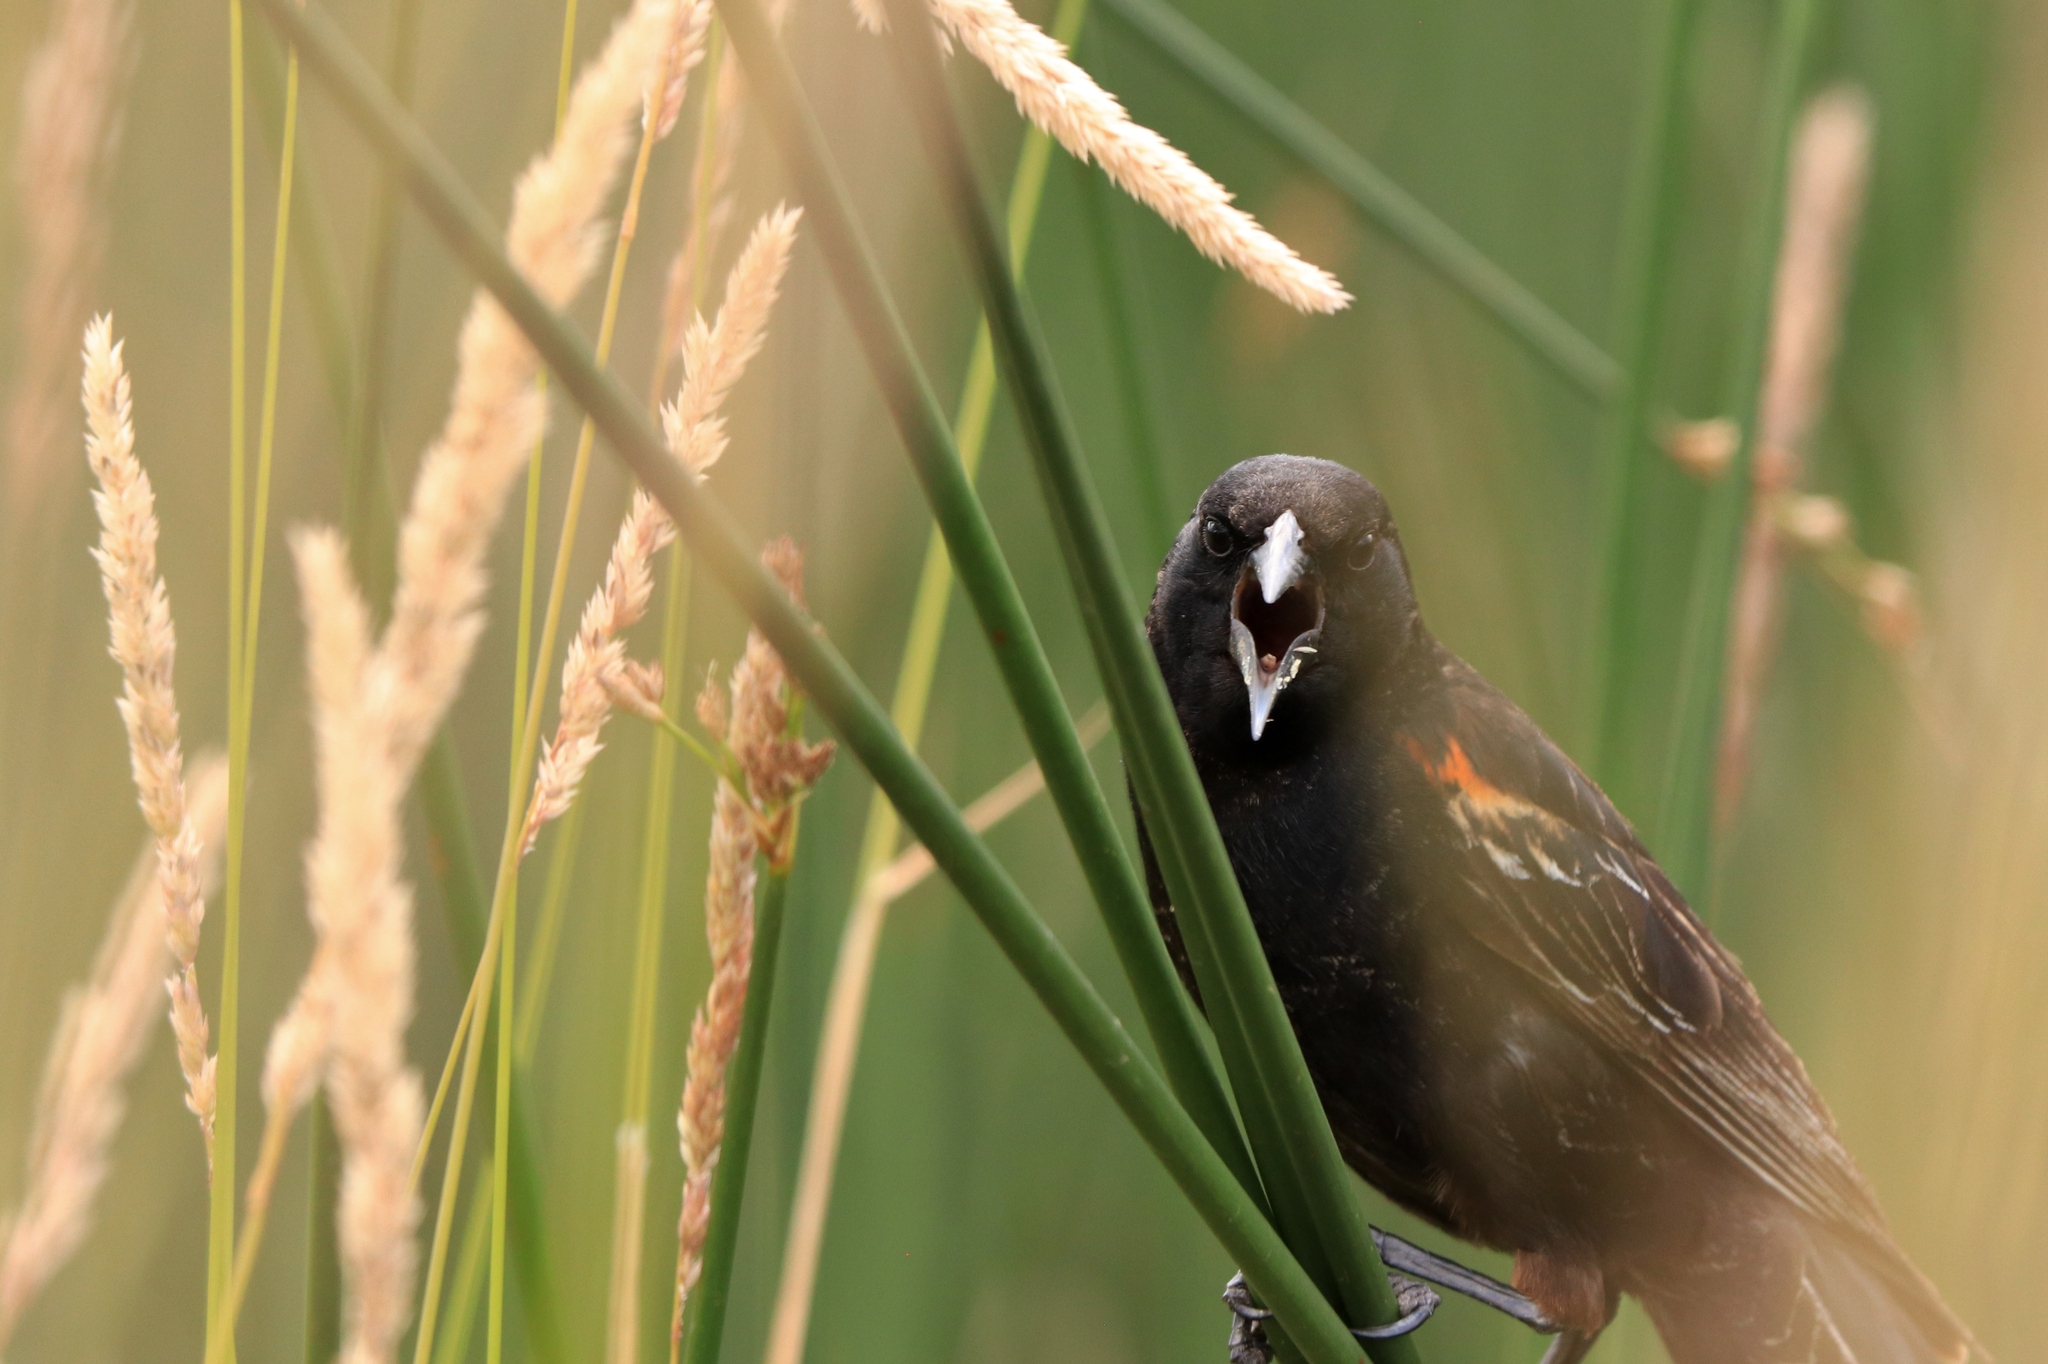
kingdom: Animalia
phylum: Chordata
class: Aves
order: Passeriformes
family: Icteridae
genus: Agelaius
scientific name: Agelaius phoeniceus
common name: Red-winged blackbird
